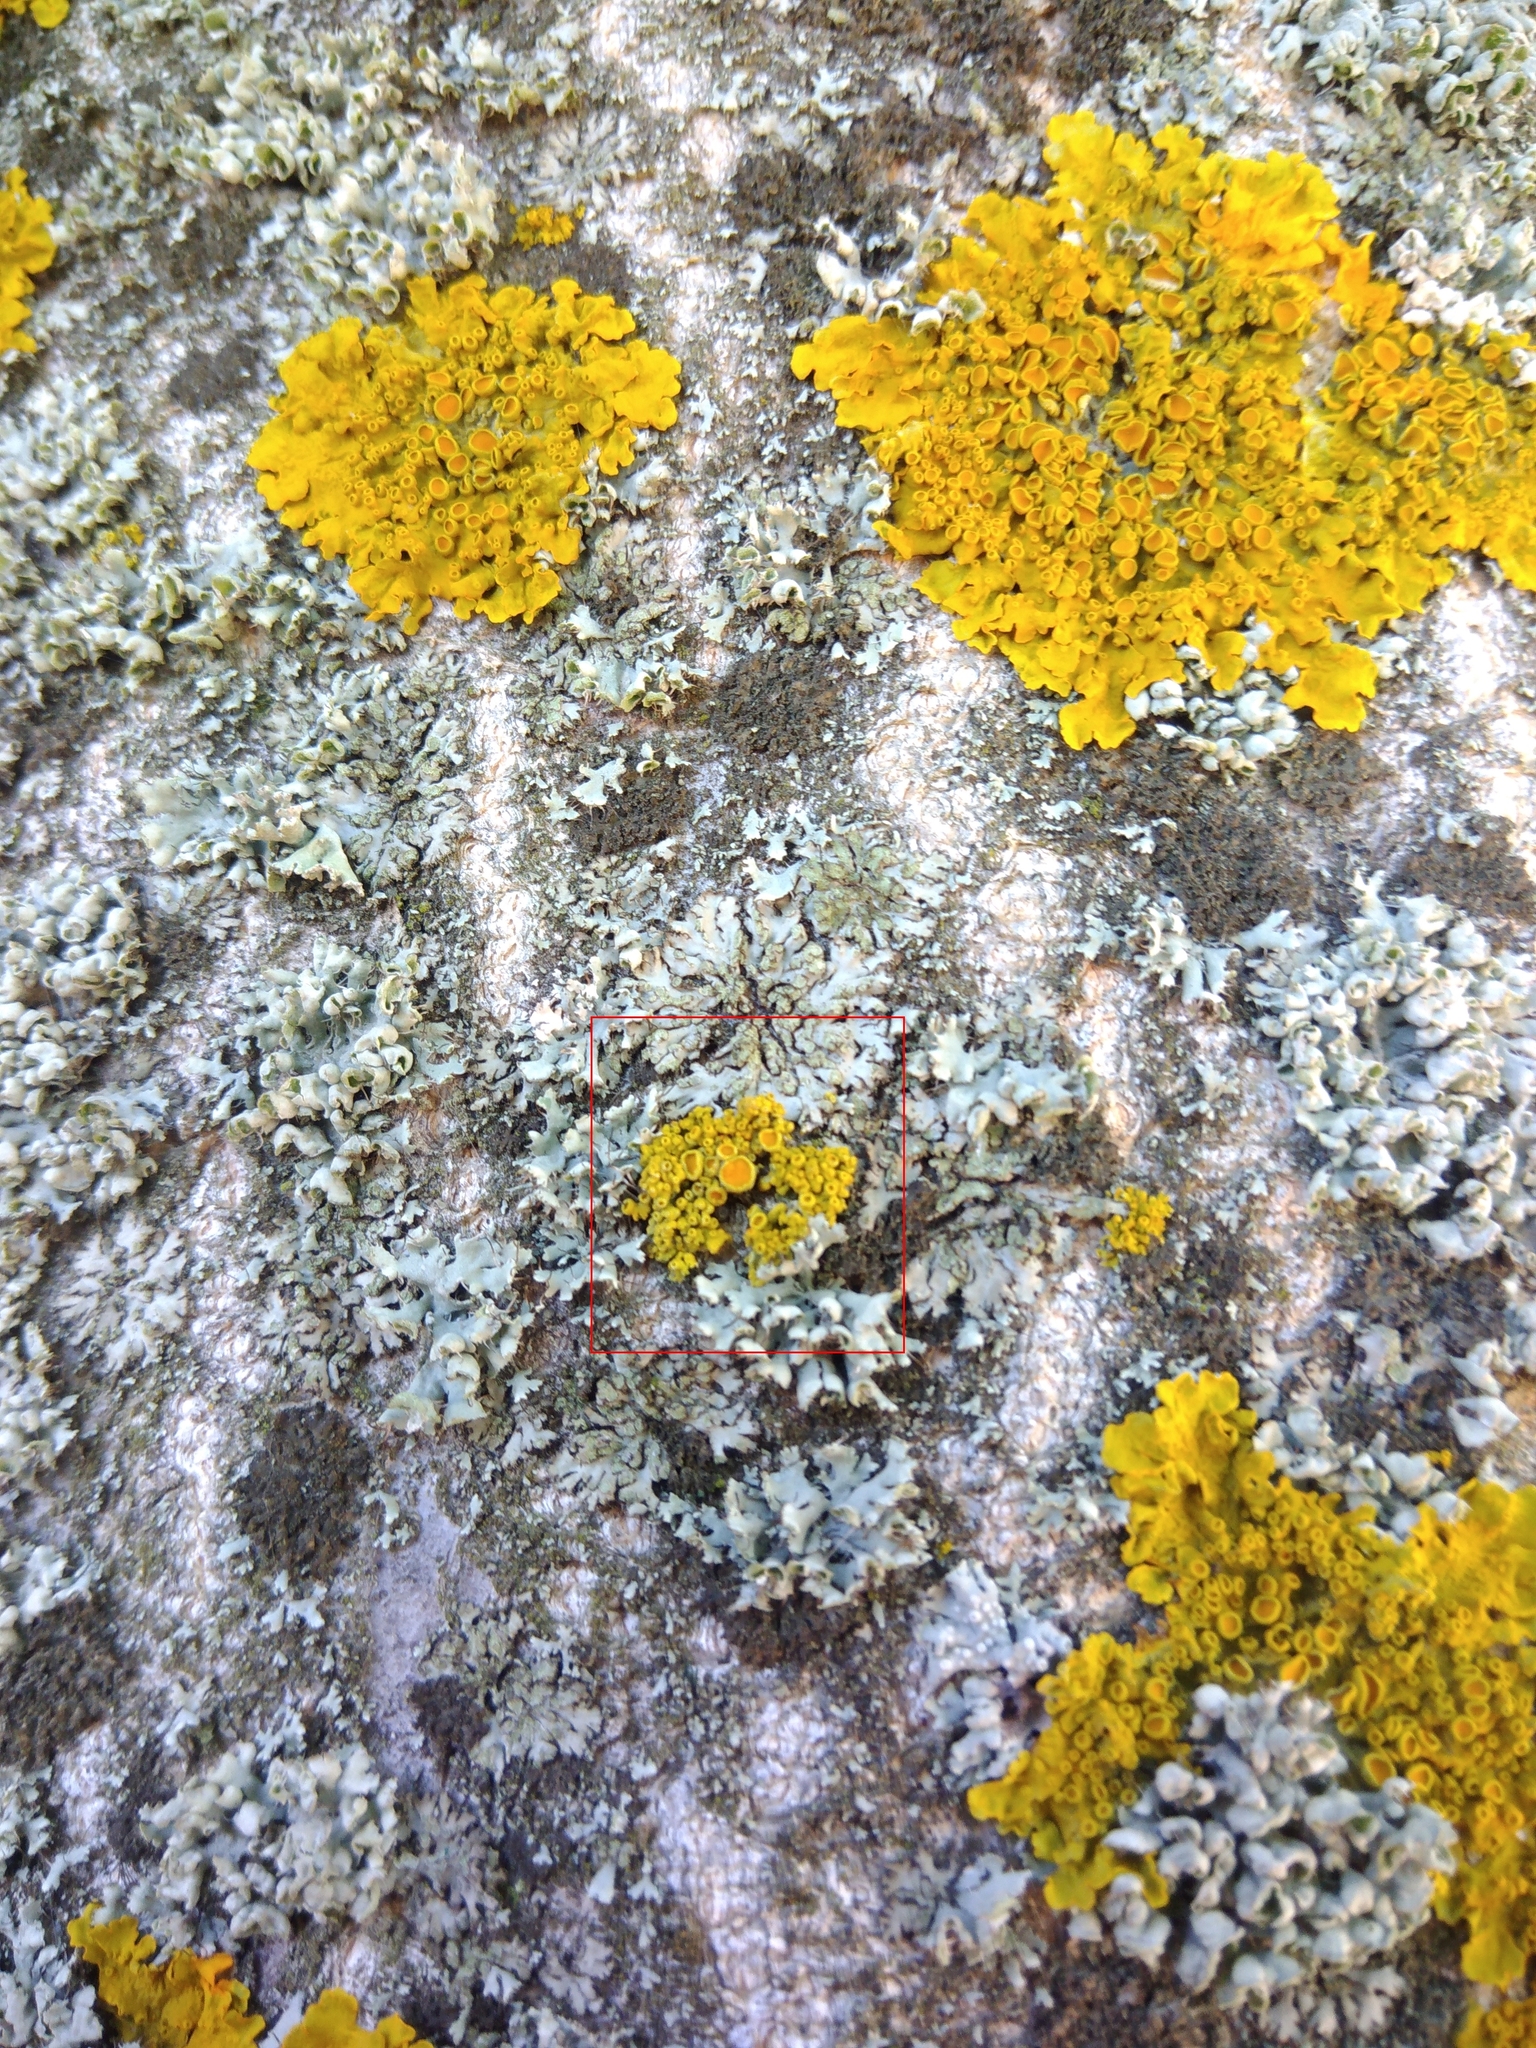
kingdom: Fungi
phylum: Ascomycota
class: Lecanoromycetes
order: Teloschistales
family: Teloschistaceae
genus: Polycauliona
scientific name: Polycauliona polycarpa
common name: Pin-cushion sunburst lichen
